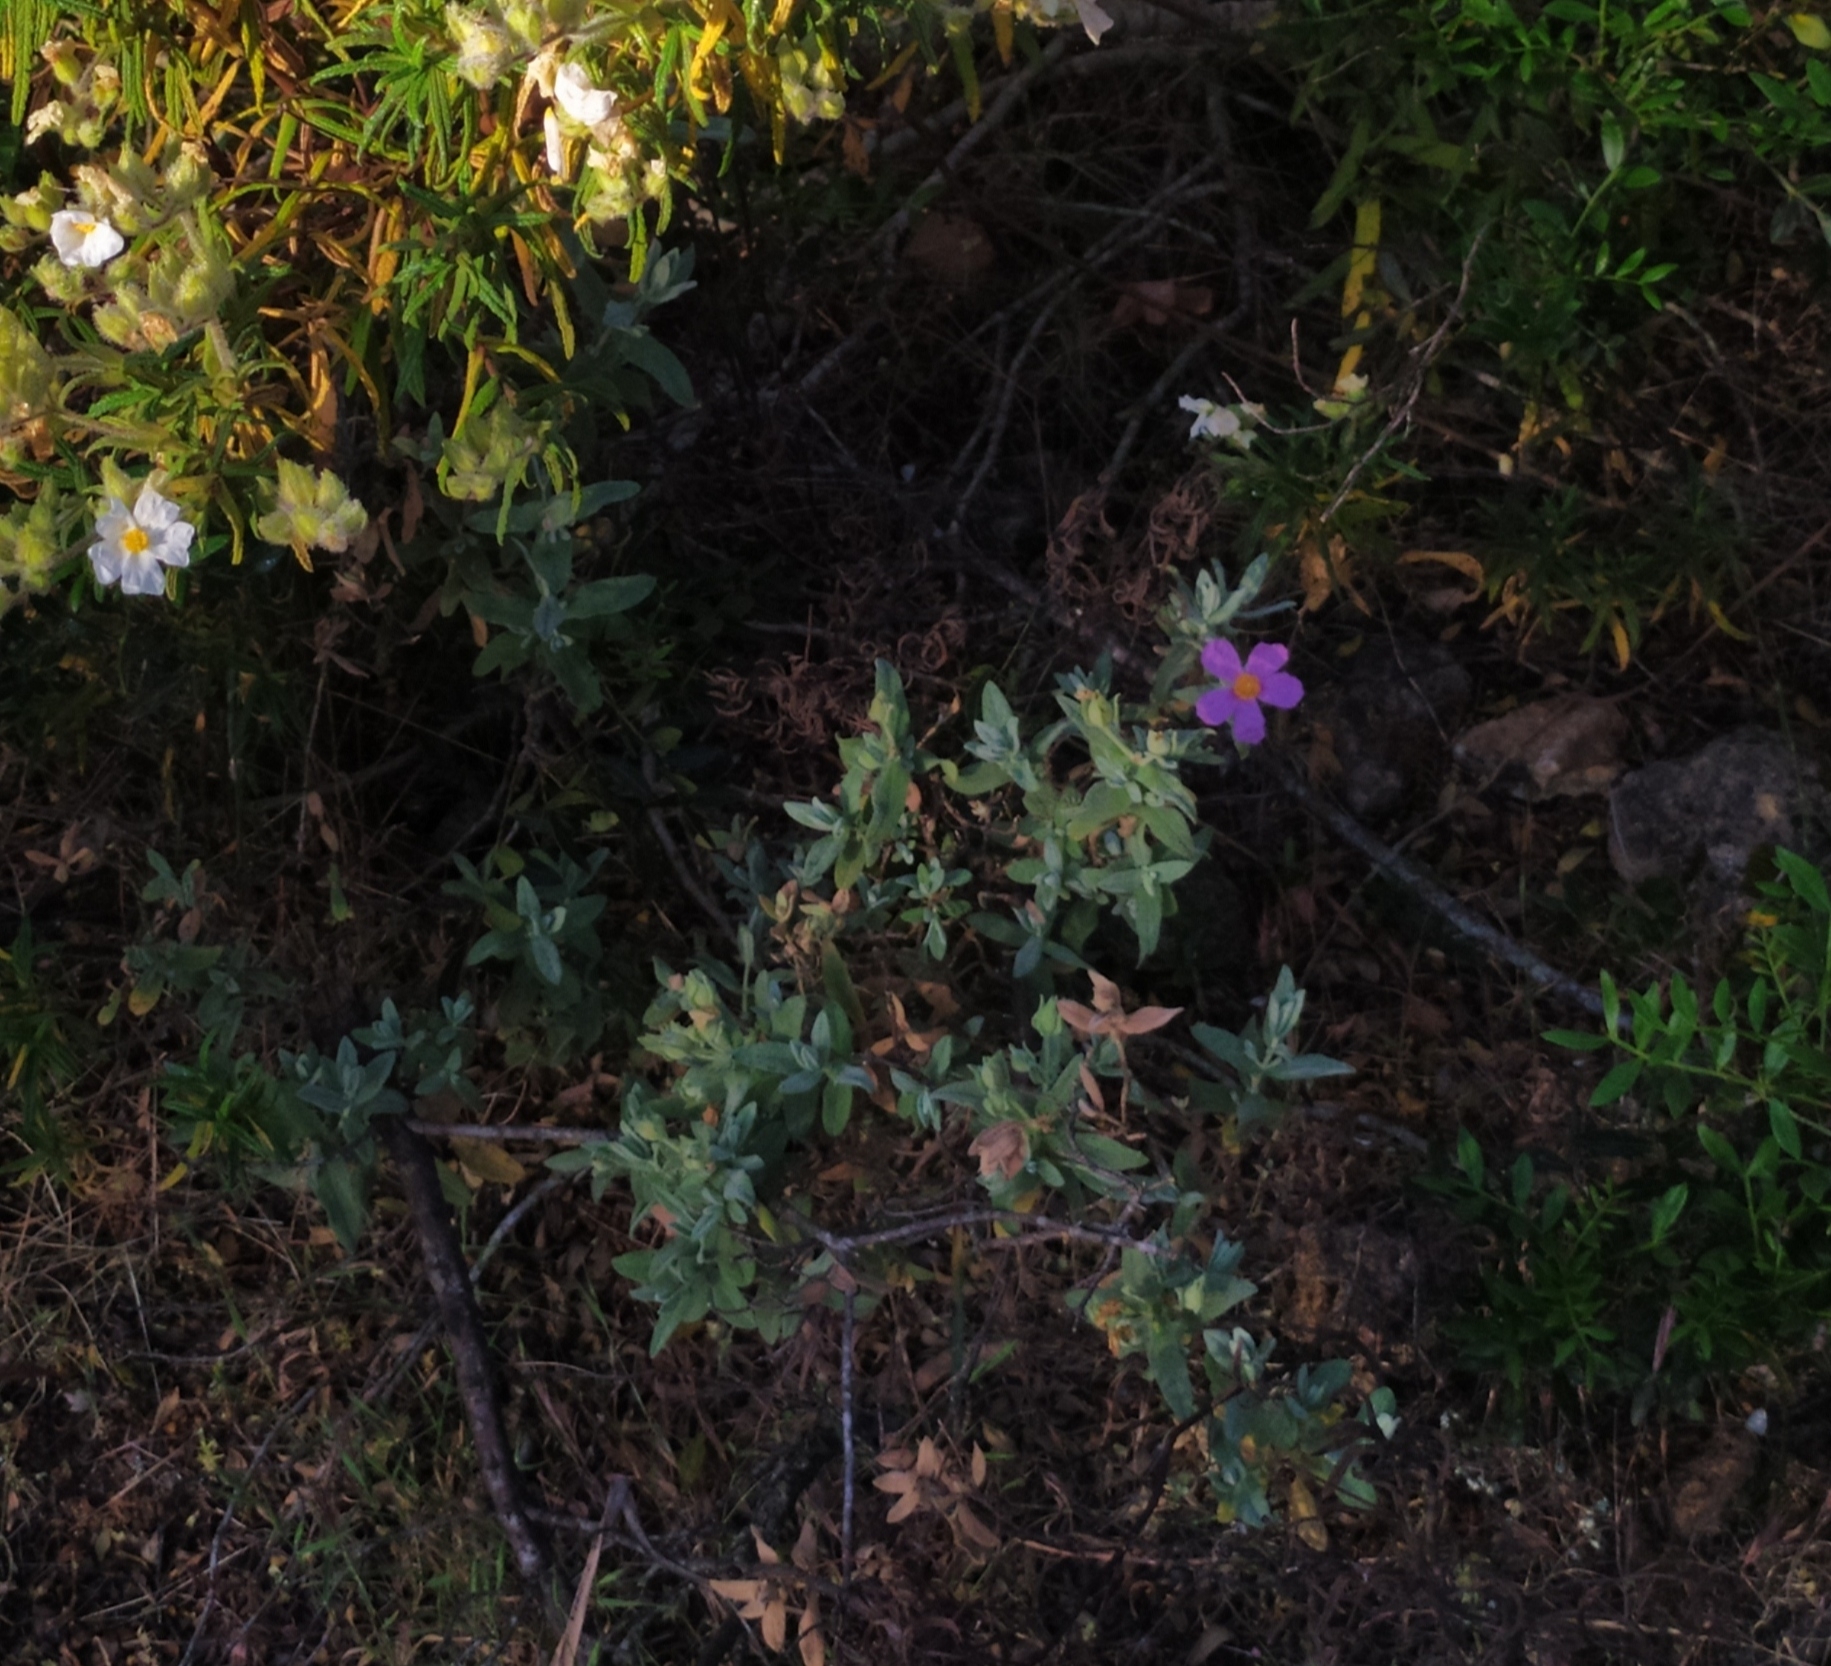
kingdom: Plantae
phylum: Tracheophyta
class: Magnoliopsida
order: Malvales
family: Cistaceae
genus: Cistus
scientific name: Cistus albidus
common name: White-leaf rock-rose
